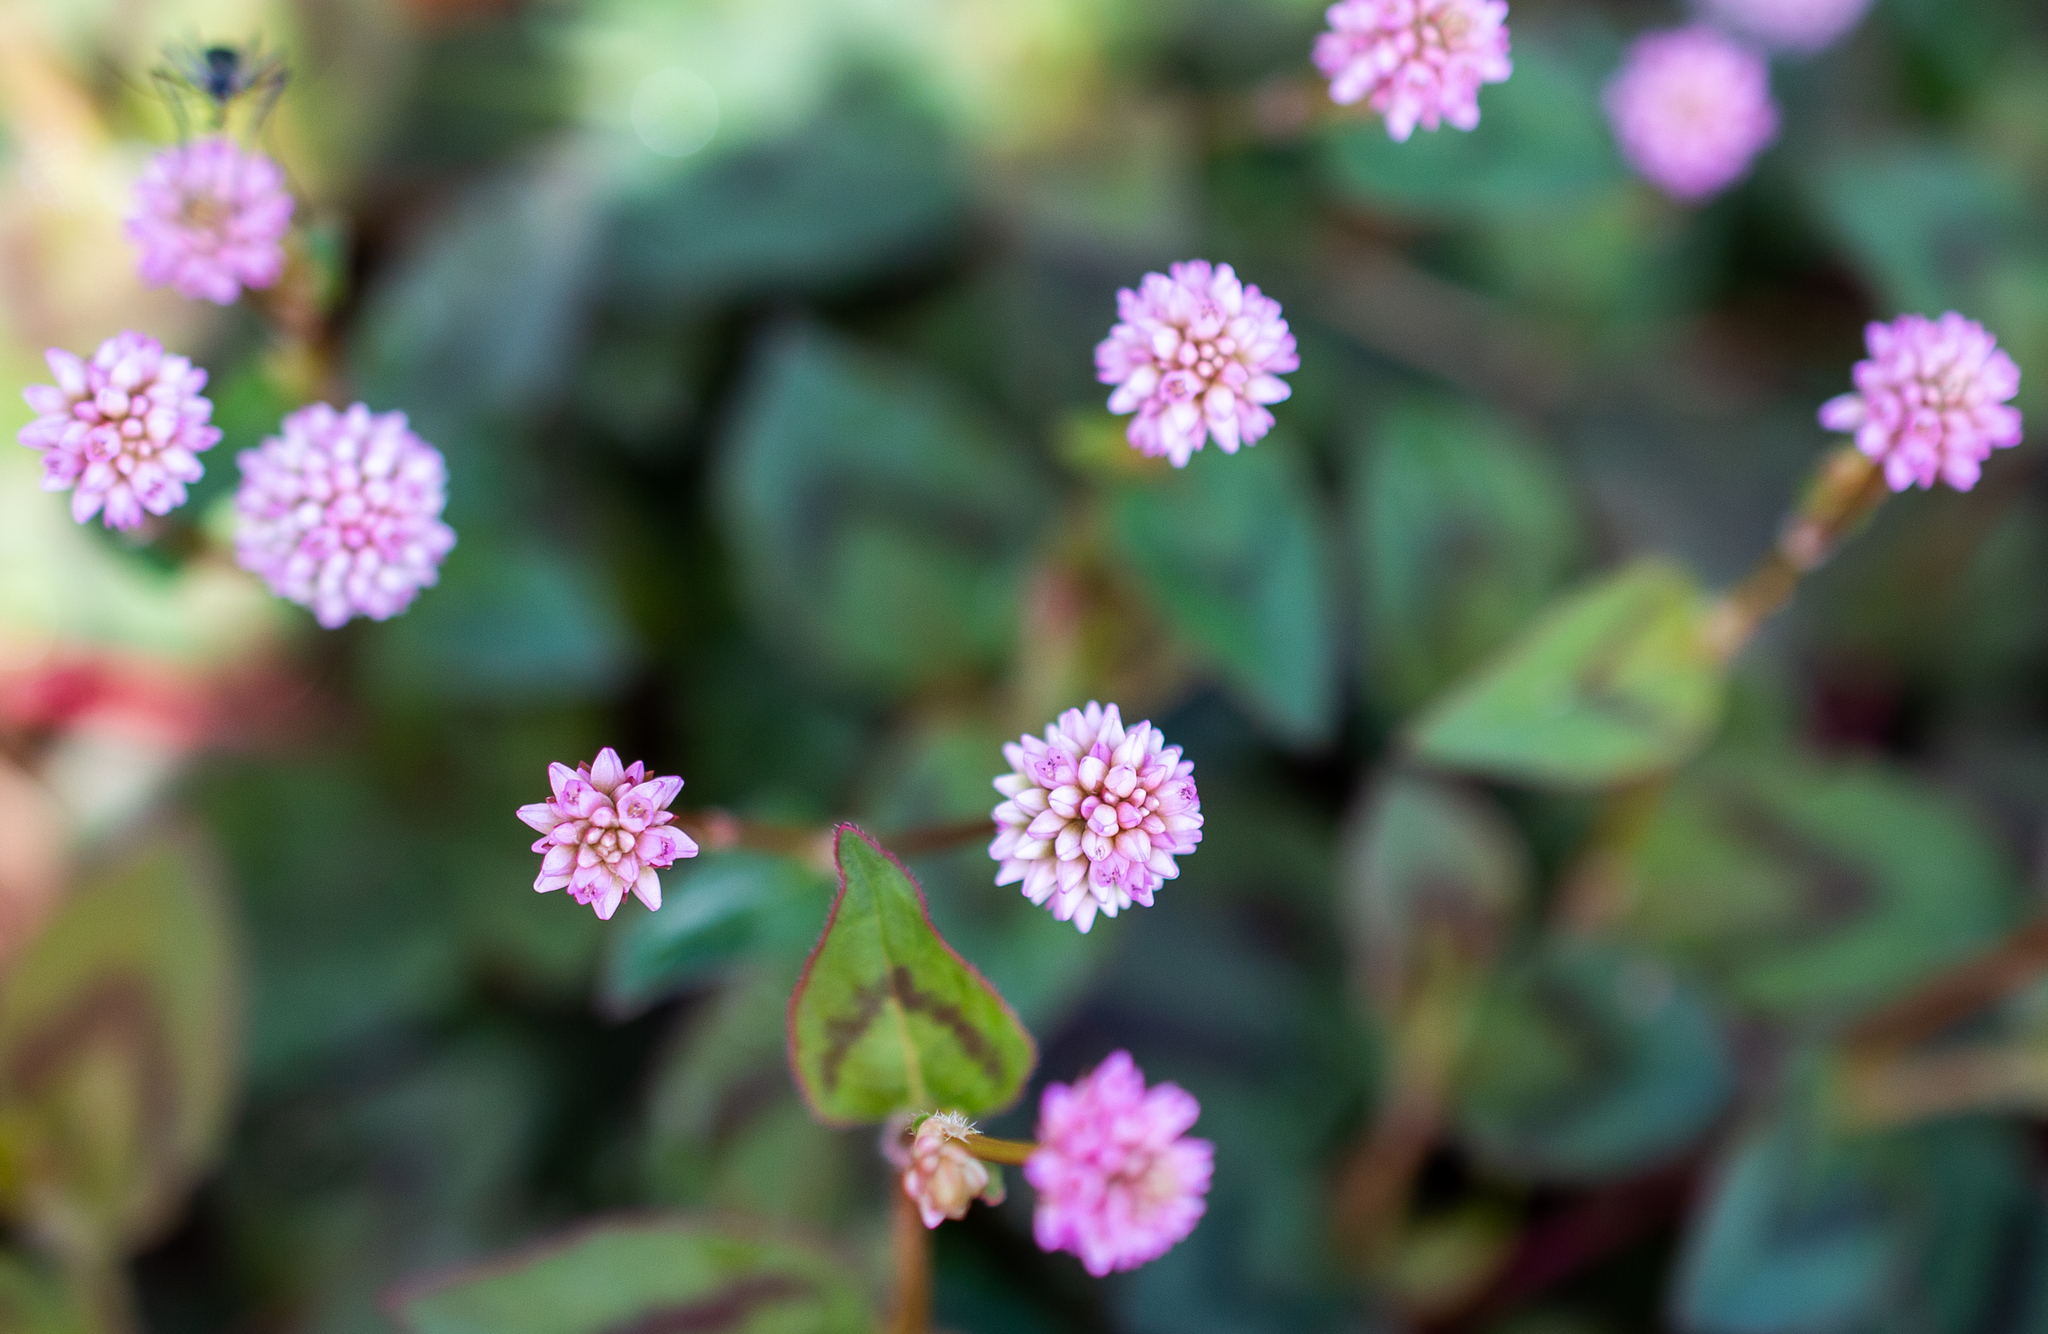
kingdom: Plantae
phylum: Tracheophyta
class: Magnoliopsida
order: Caryophyllales
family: Polygonaceae
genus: Persicaria
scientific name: Persicaria capitata
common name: Pinkhead smartweed
